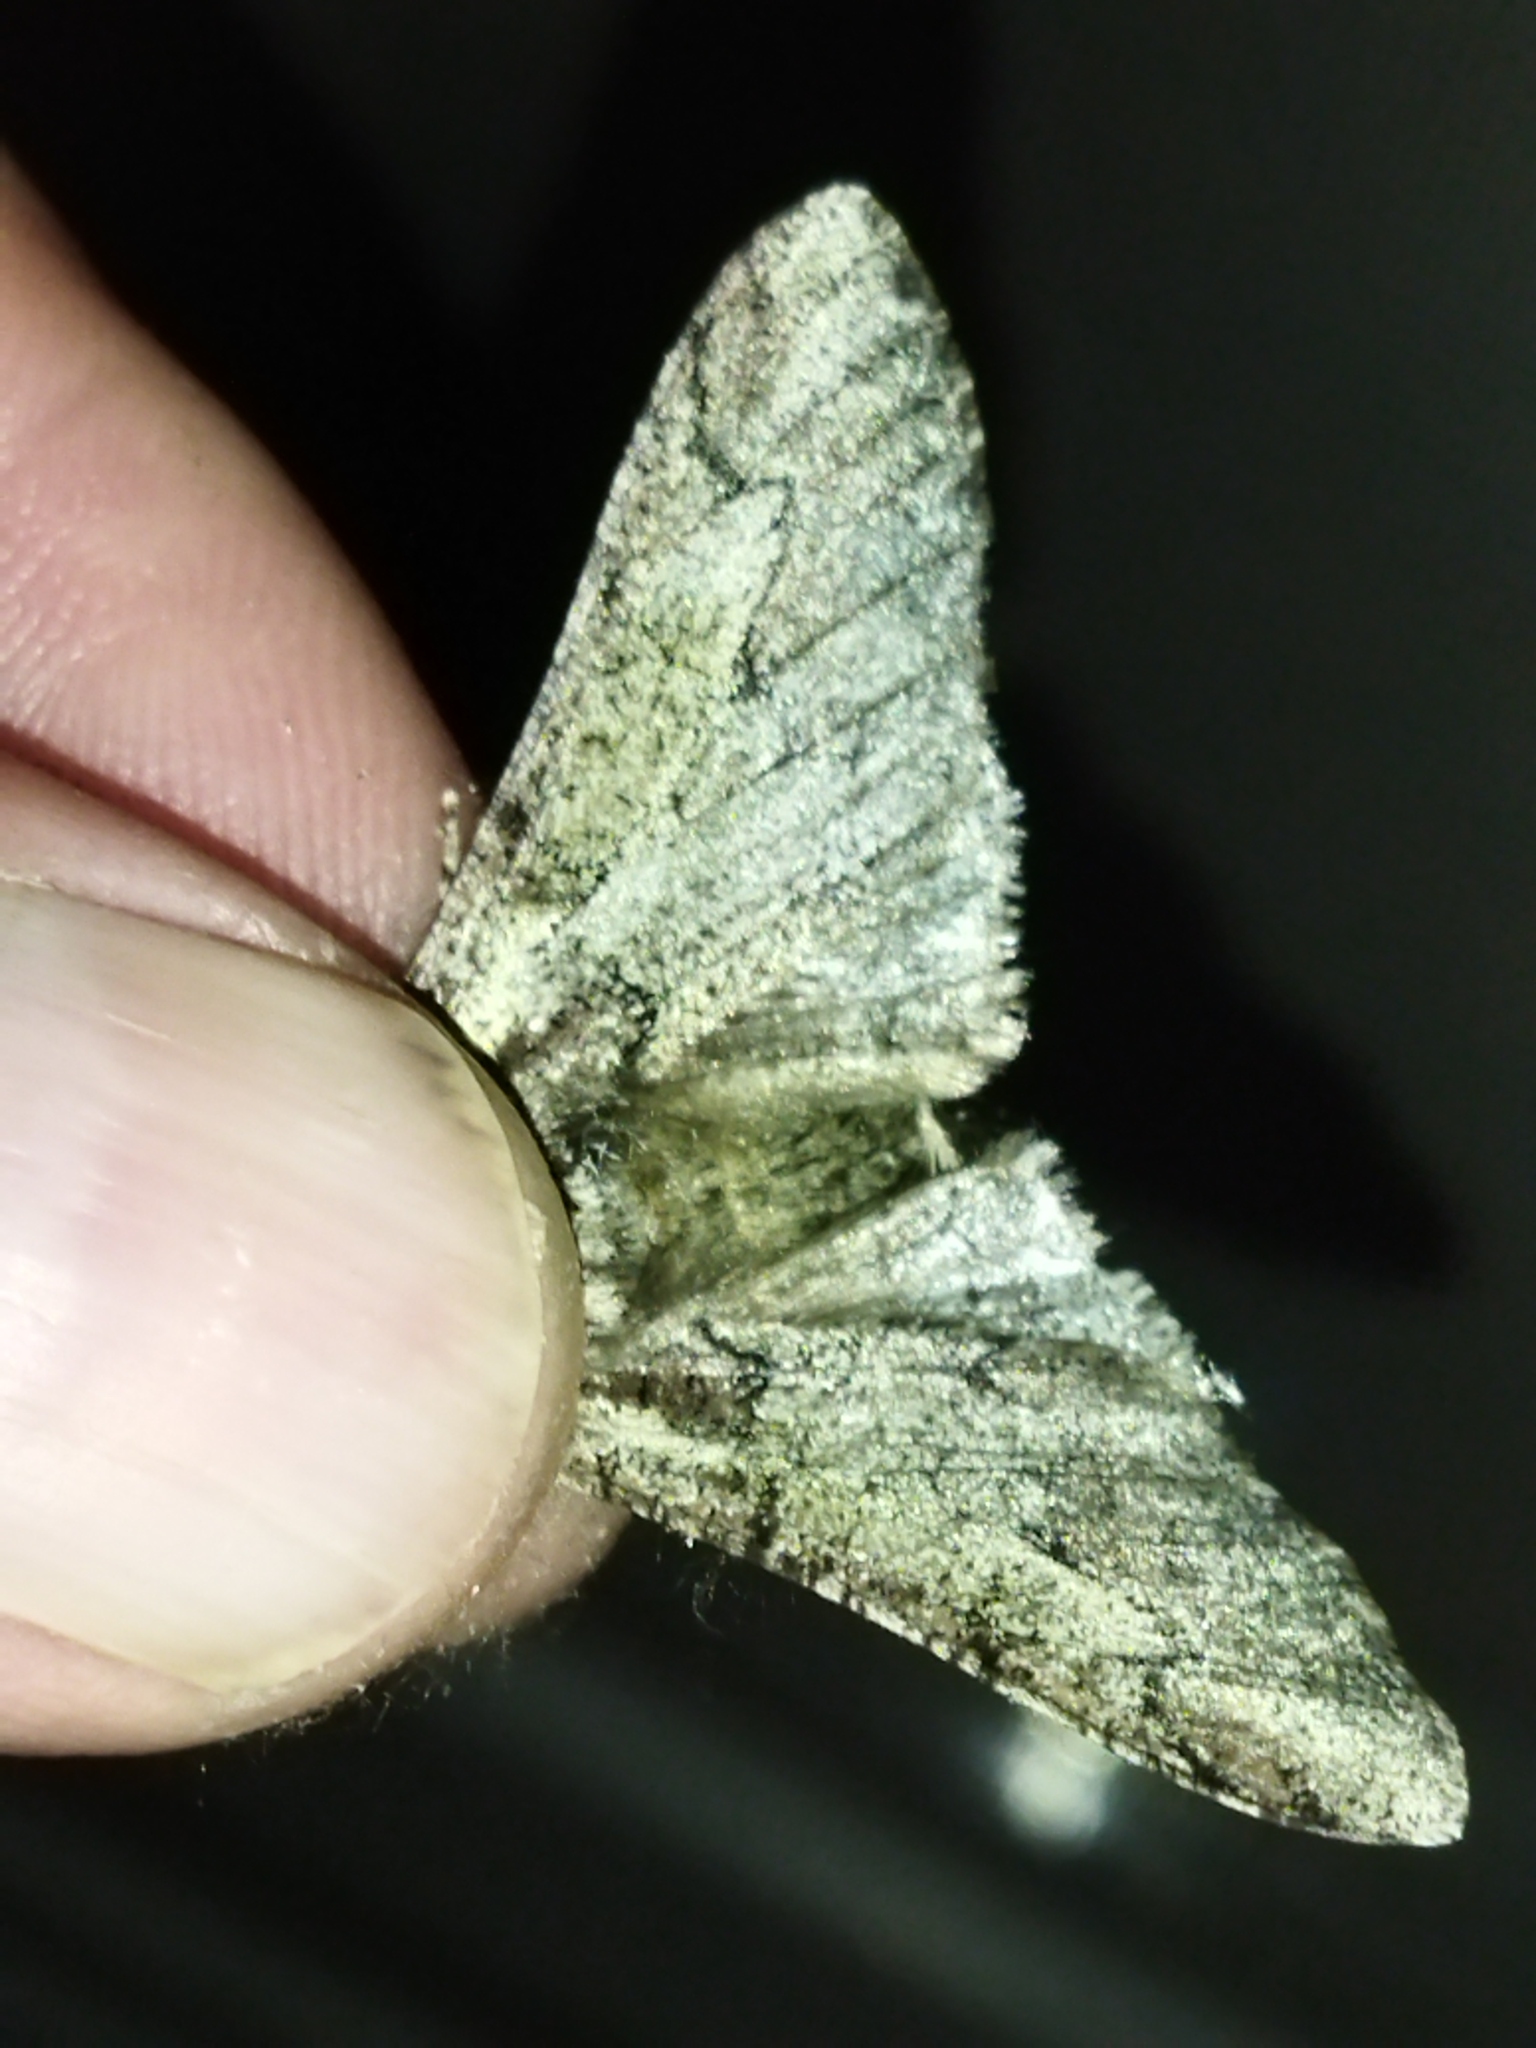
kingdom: Animalia
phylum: Arthropoda
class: Insecta
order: Lepidoptera
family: Geometridae
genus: Biston
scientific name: Biston rosenbaueri
